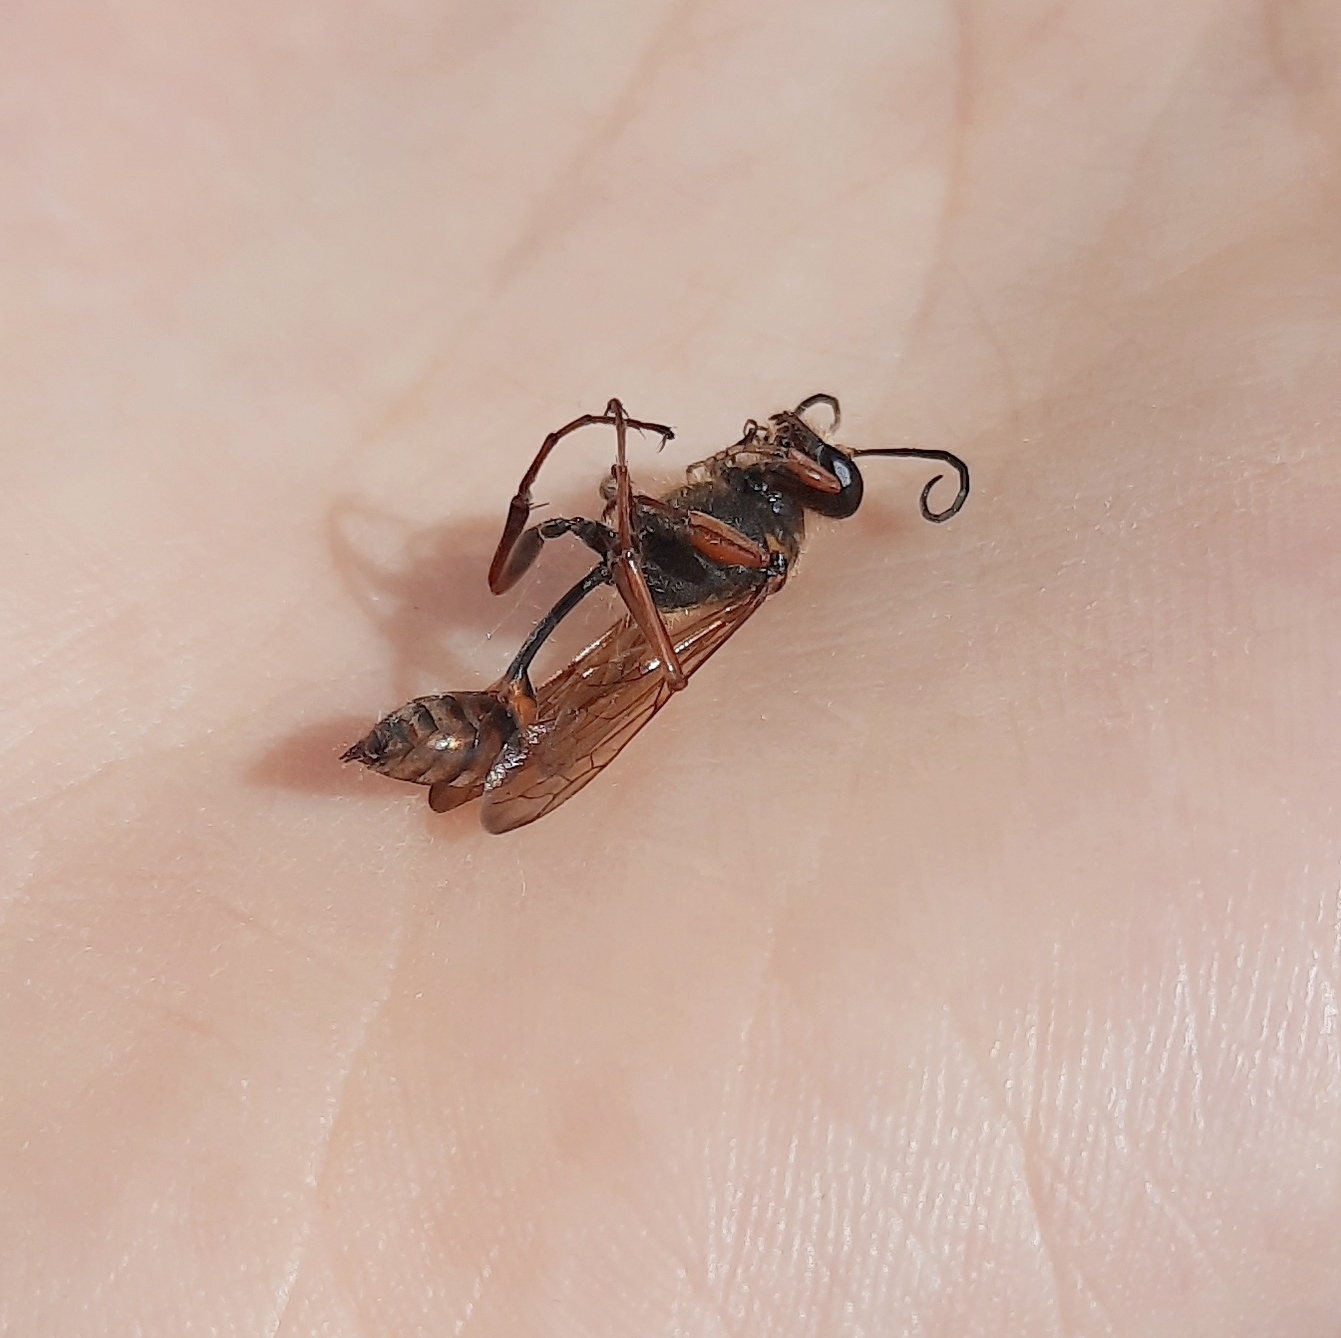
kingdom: Animalia
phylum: Arthropoda
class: Insecta
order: Hymenoptera
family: Sphecidae
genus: Sceliphron
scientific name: Sceliphron curvatum
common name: Pèlopèe
